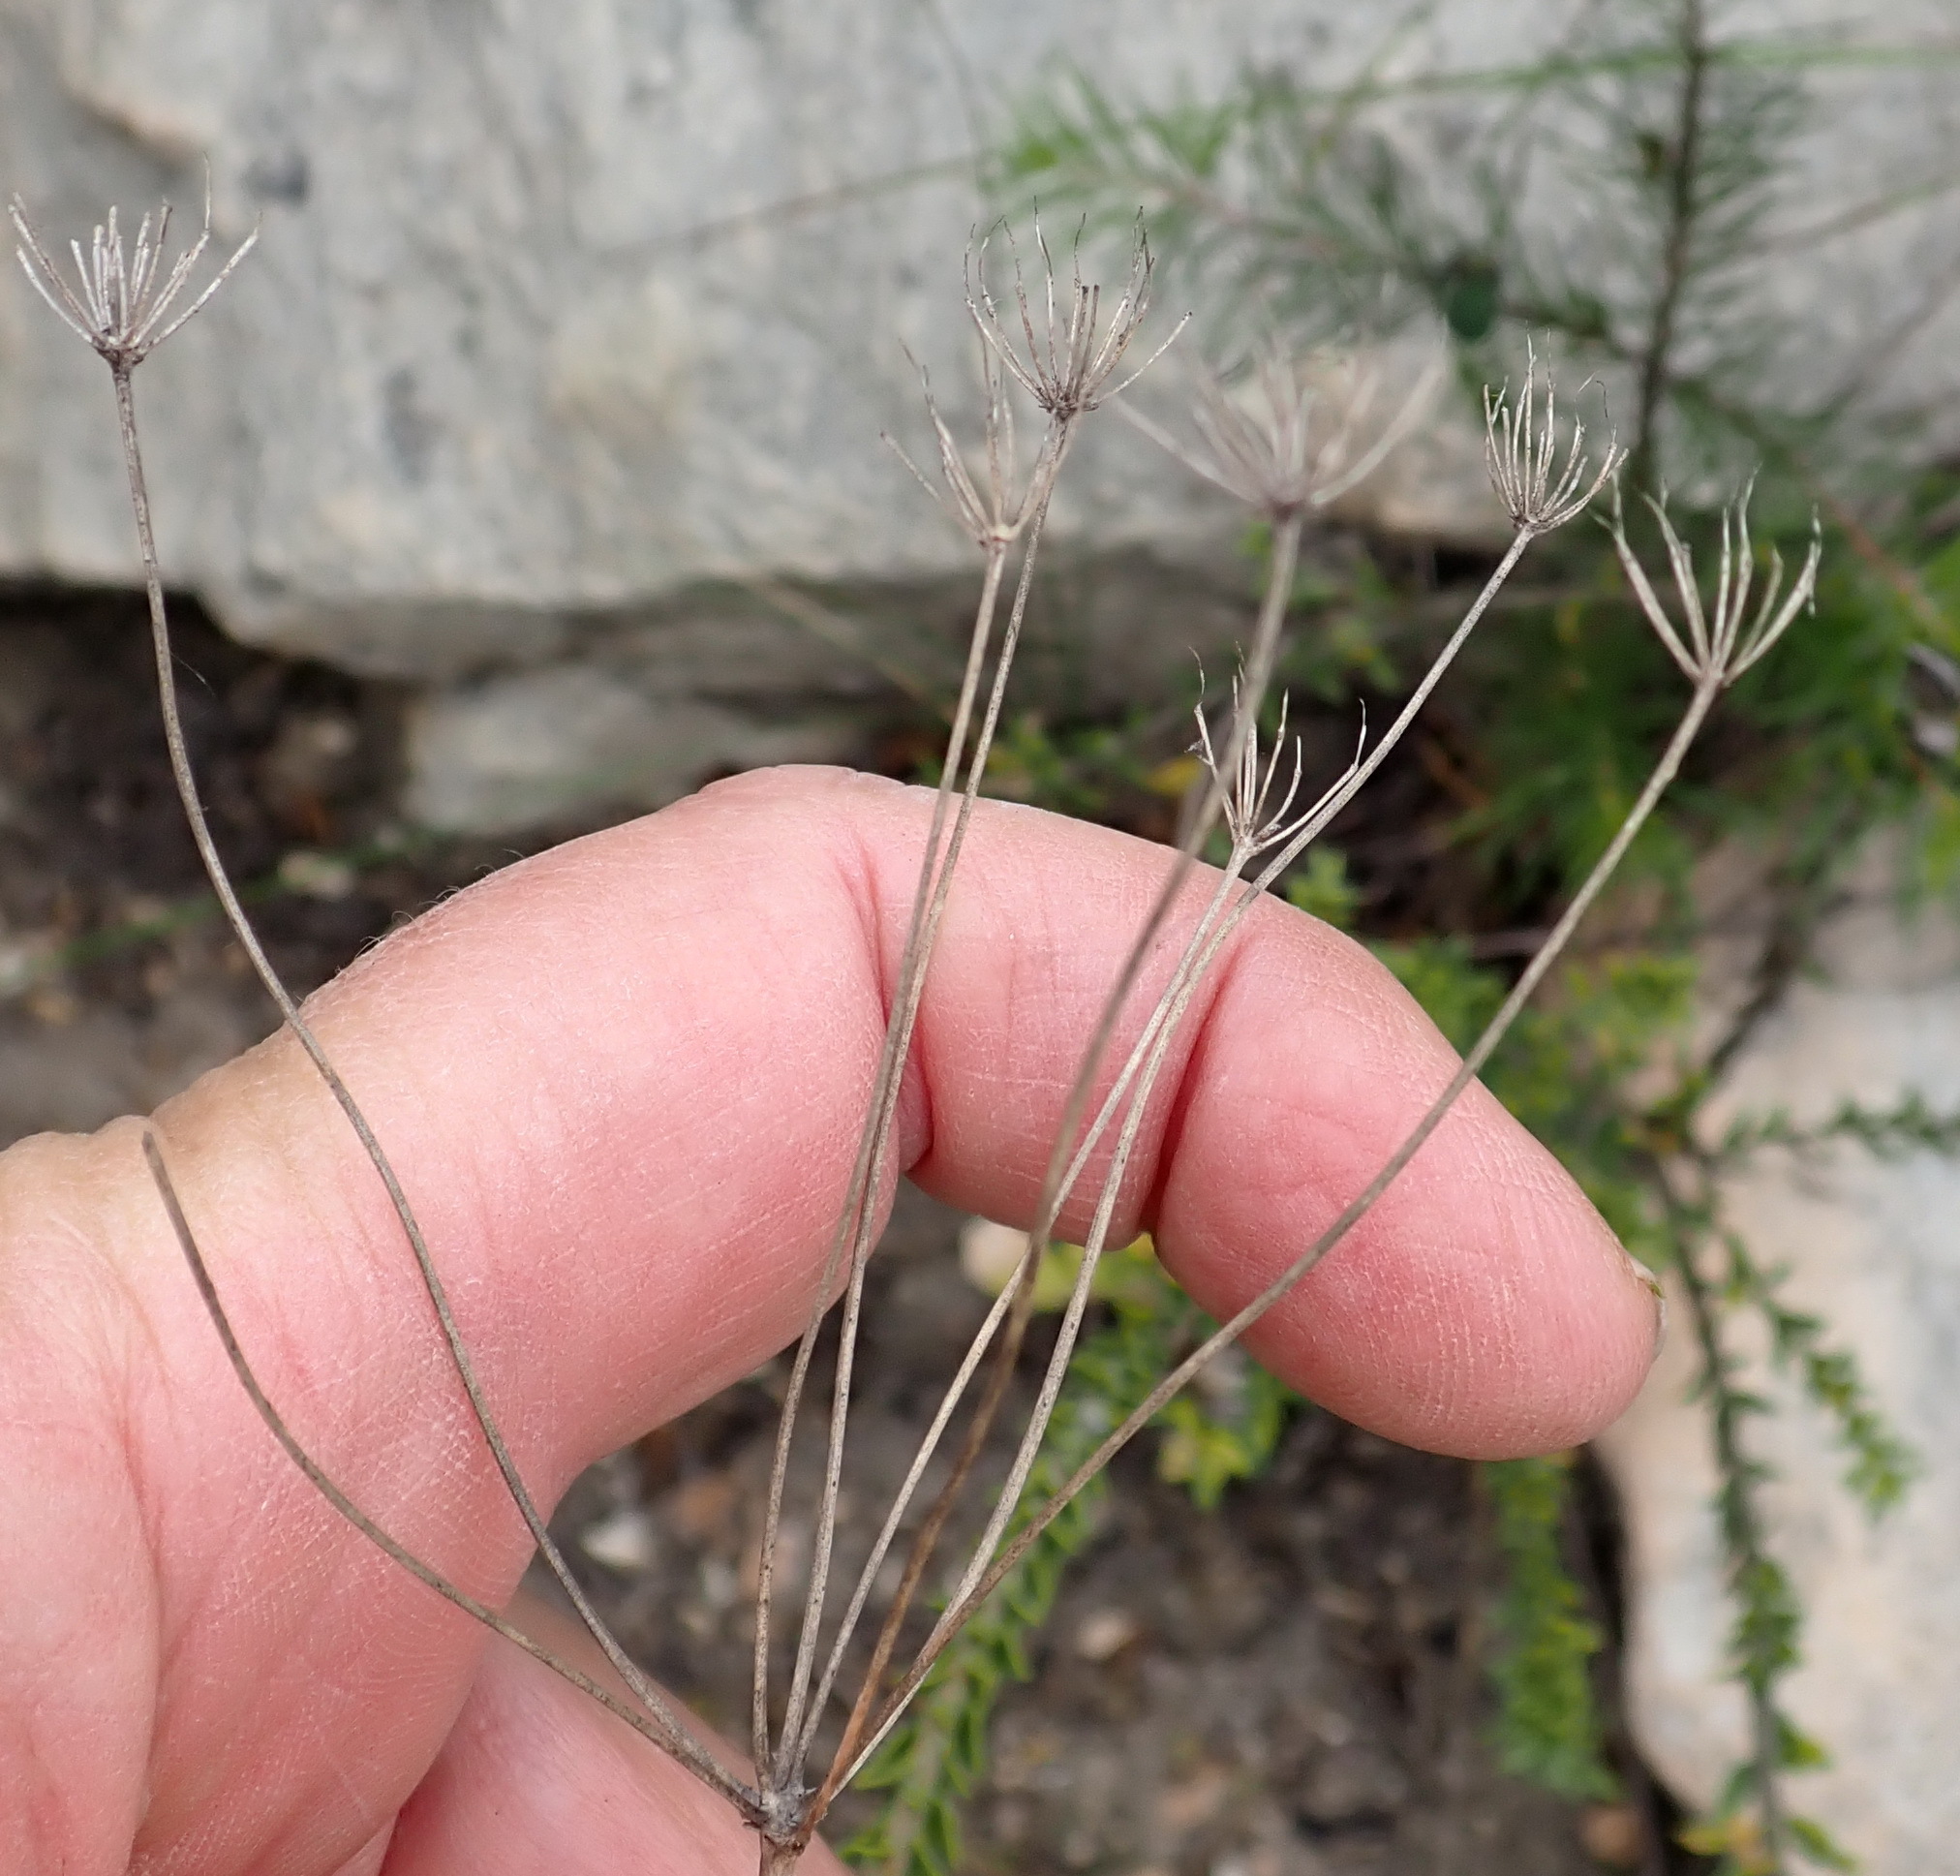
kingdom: Plantae
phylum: Tracheophyta
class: Magnoliopsida
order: Apiales
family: Apiaceae
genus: Lichtensteinia
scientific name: Lichtensteinia interrupta
